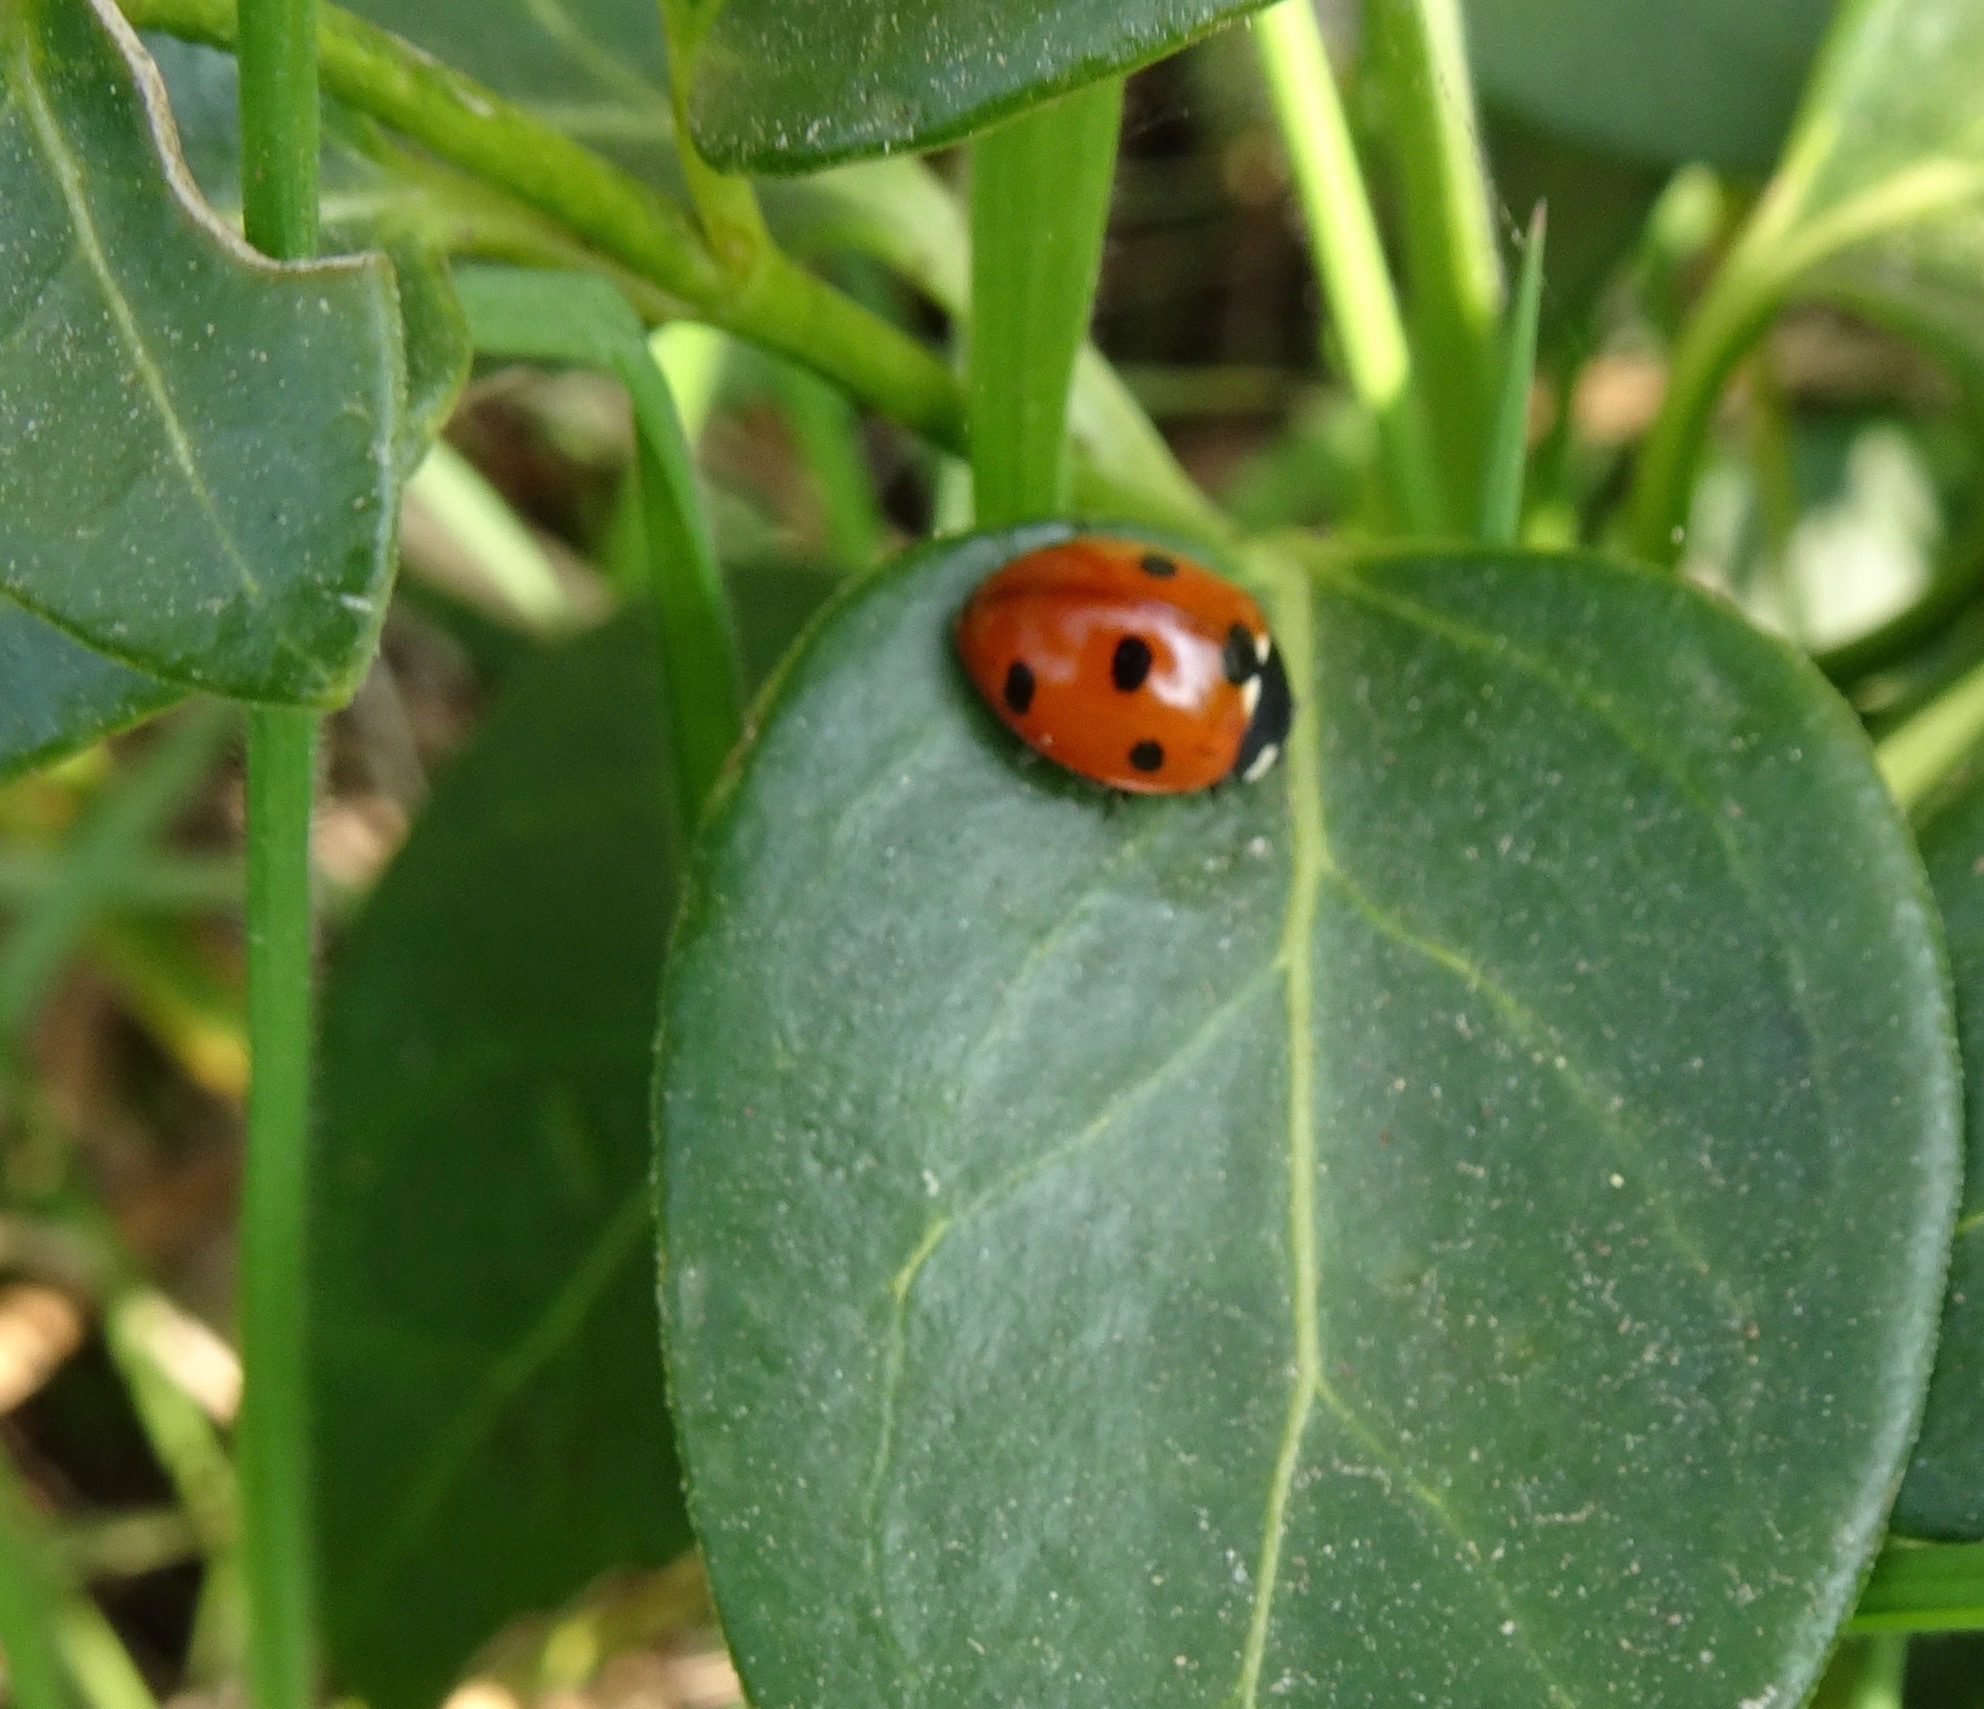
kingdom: Animalia
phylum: Arthropoda
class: Insecta
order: Coleoptera
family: Coccinellidae
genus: Coccinella
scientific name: Coccinella septempunctata
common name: Sevenspotted lady beetle
